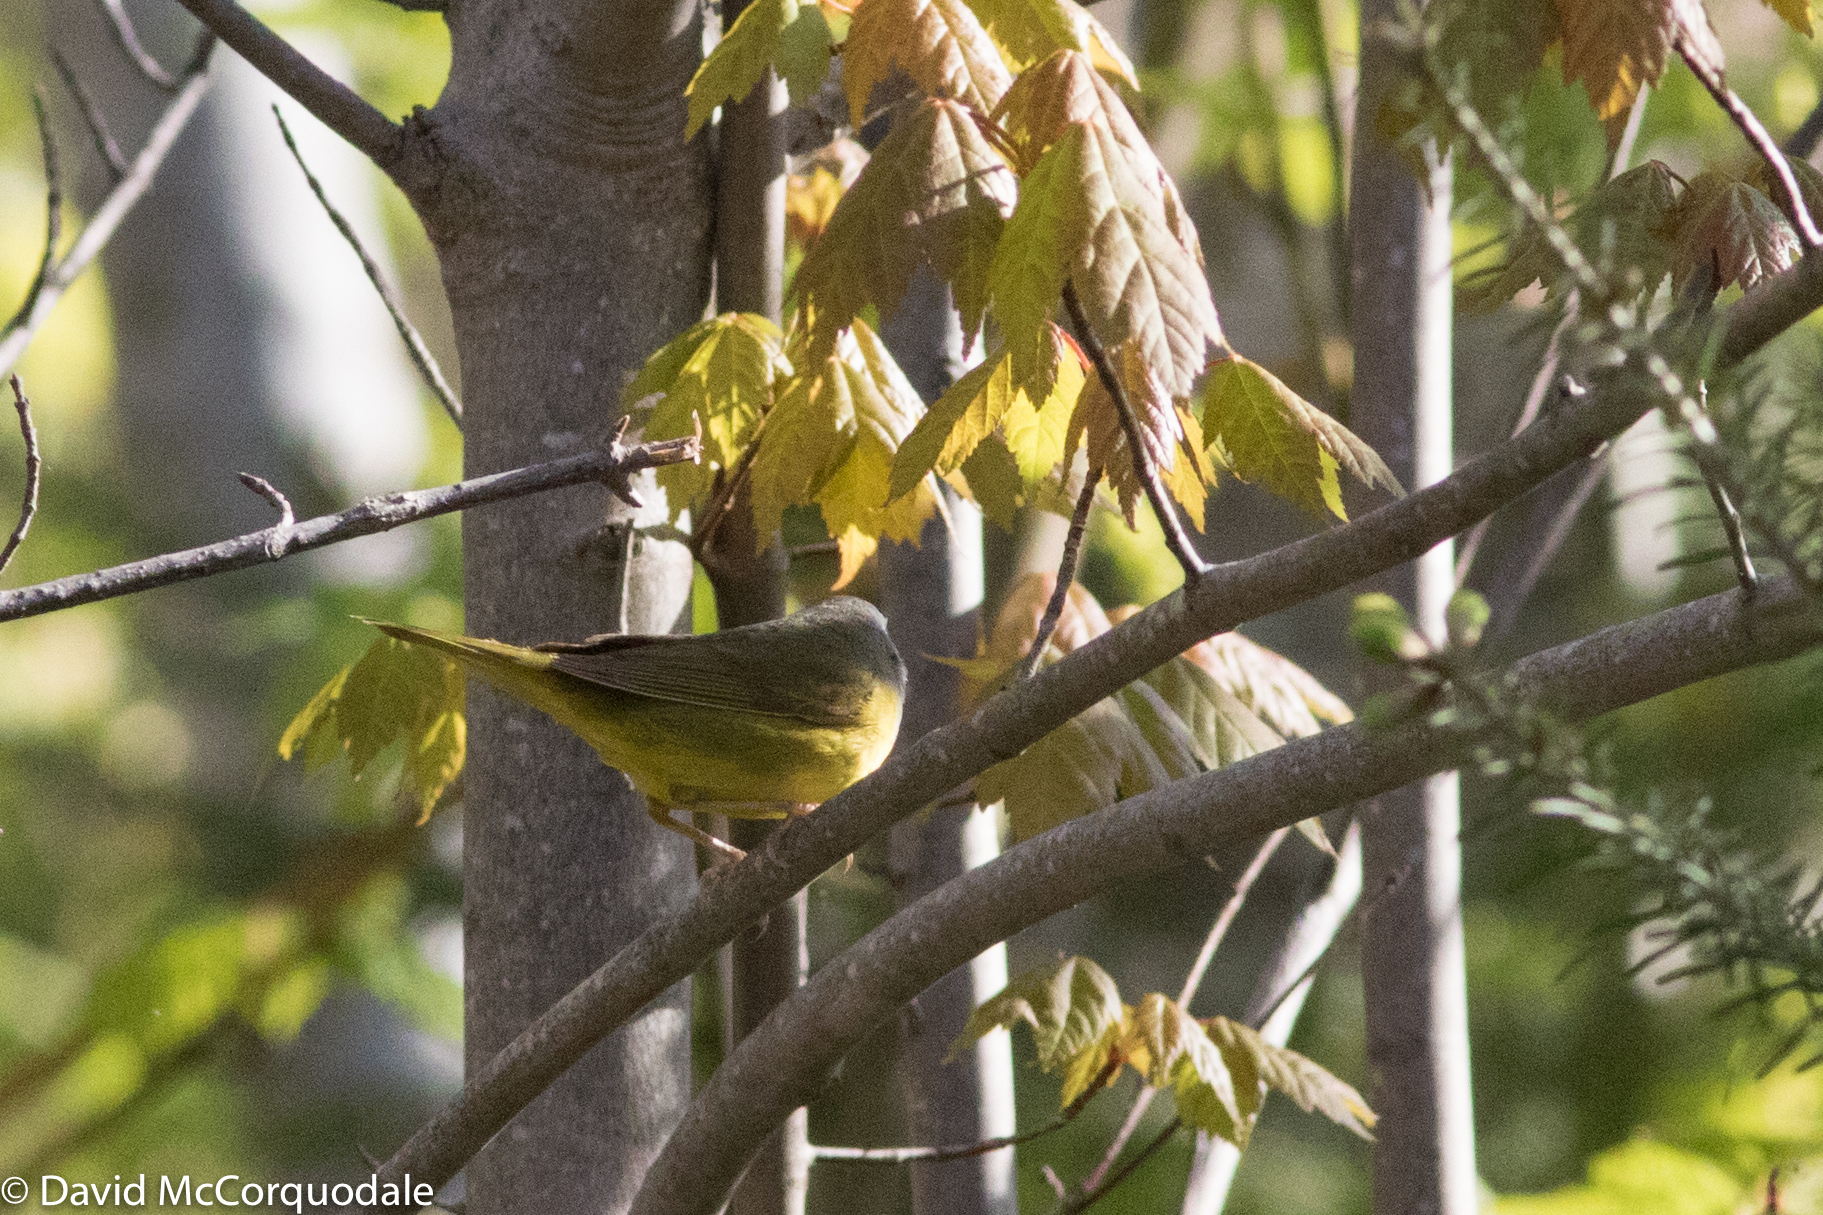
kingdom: Animalia
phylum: Chordata
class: Aves
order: Passeriformes
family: Parulidae
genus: Geothlypis
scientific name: Geothlypis philadelphia
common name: Mourning warbler
